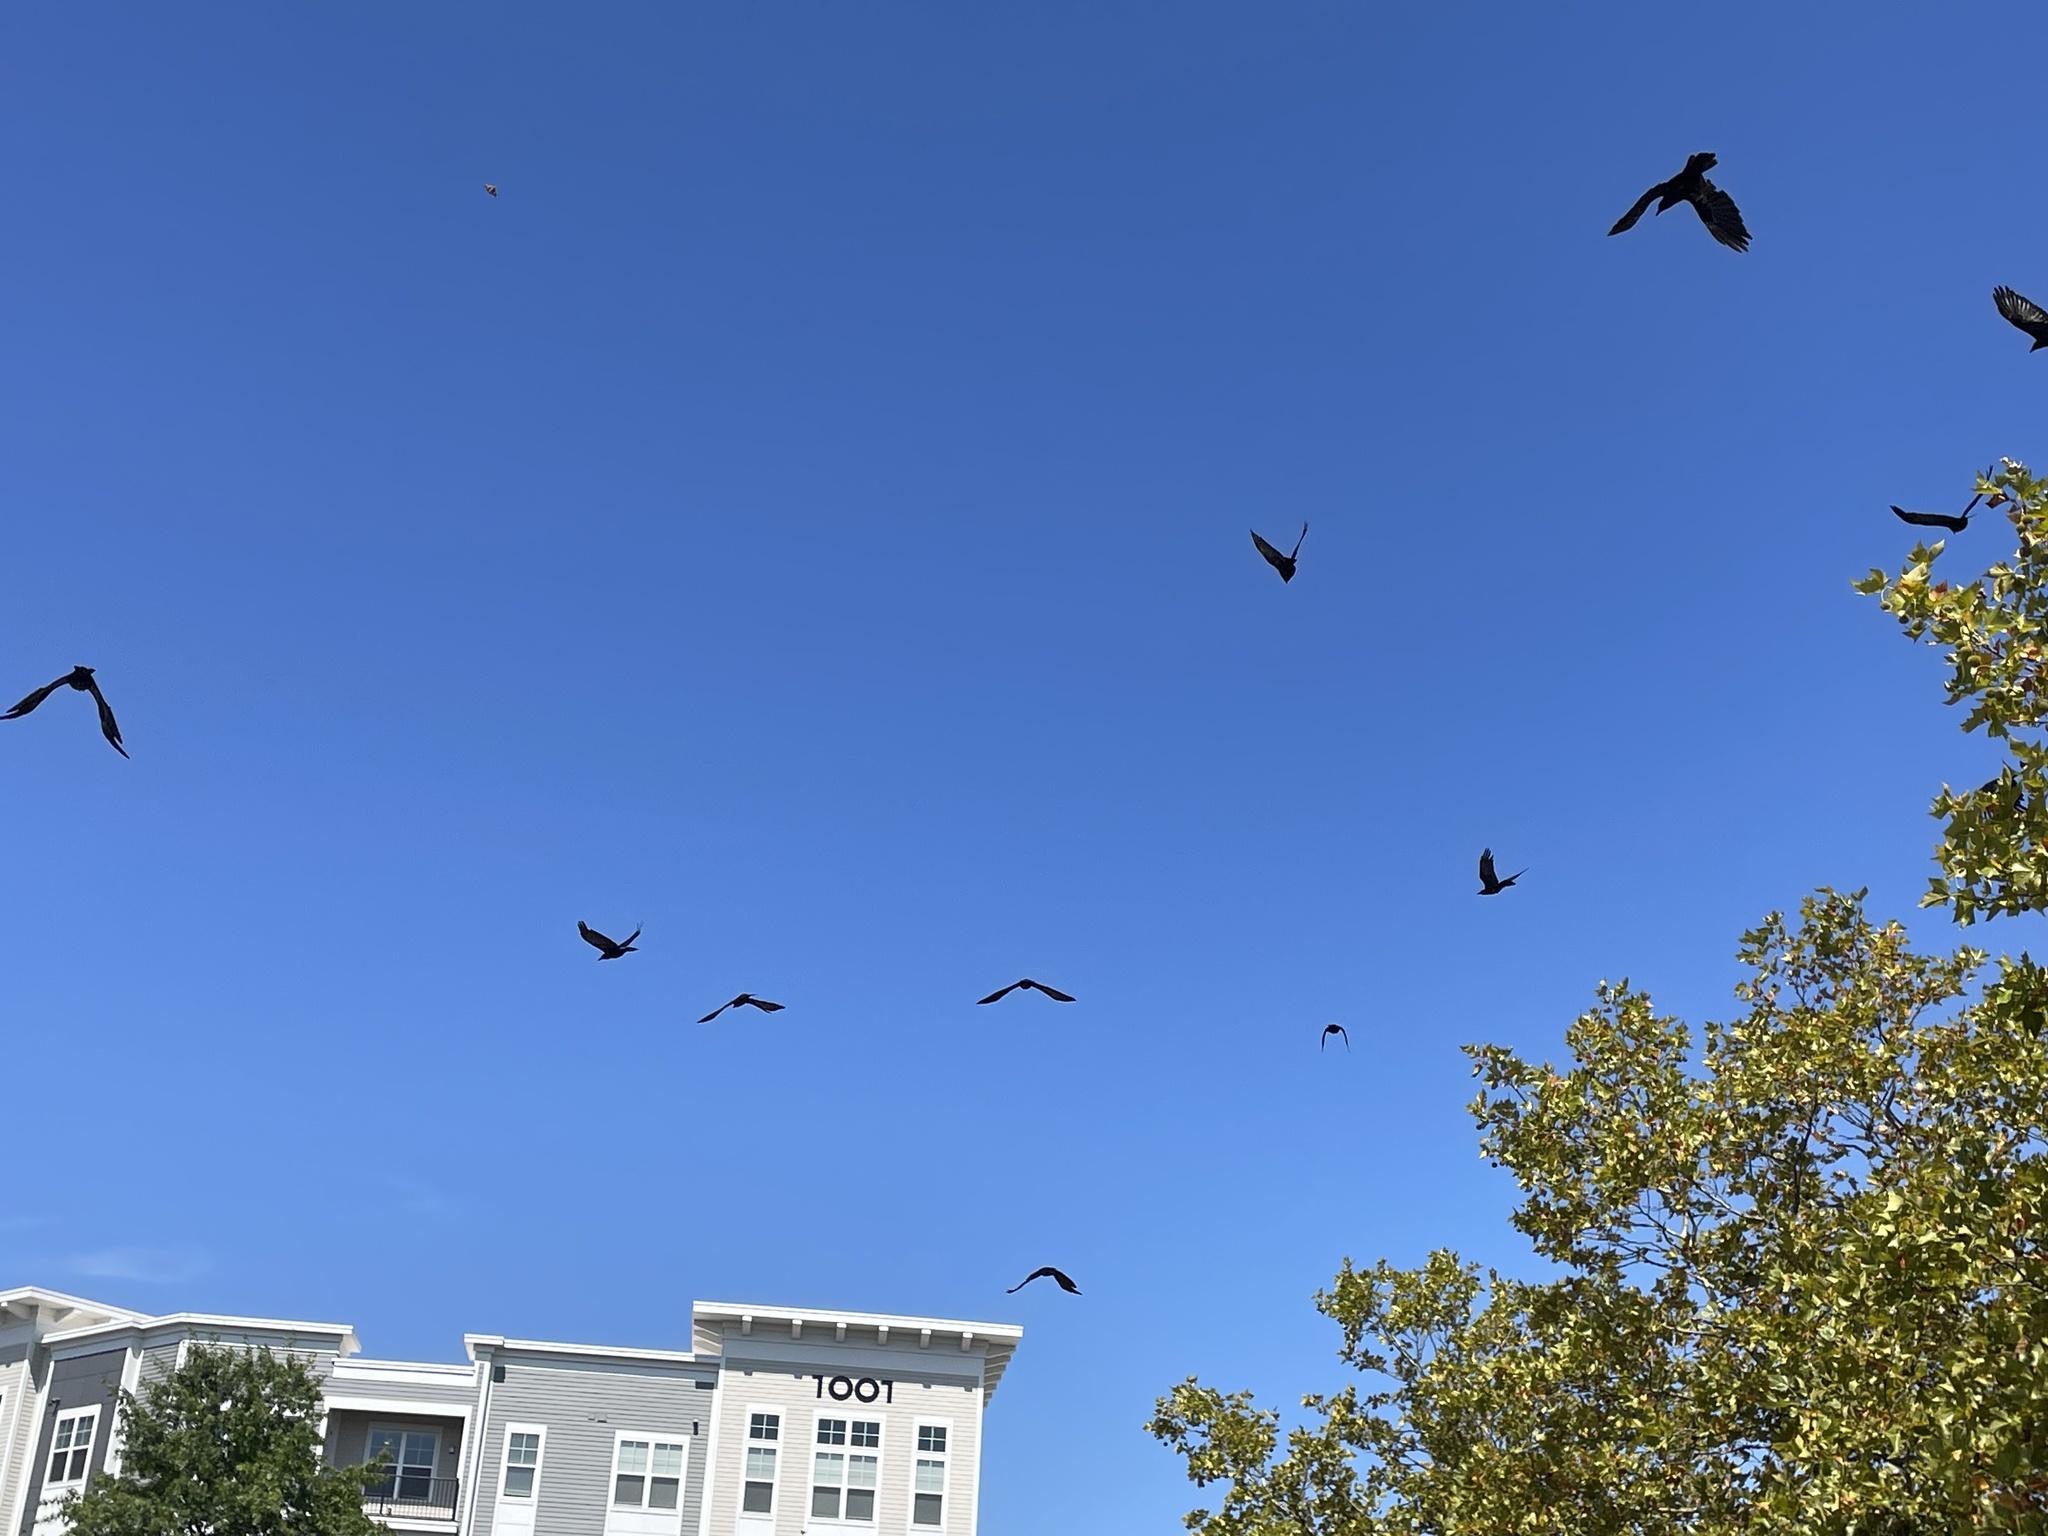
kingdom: Animalia
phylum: Chordata
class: Aves
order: Passeriformes
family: Corvidae
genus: Corvus
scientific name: Corvus ossifragus
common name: Fish crow
